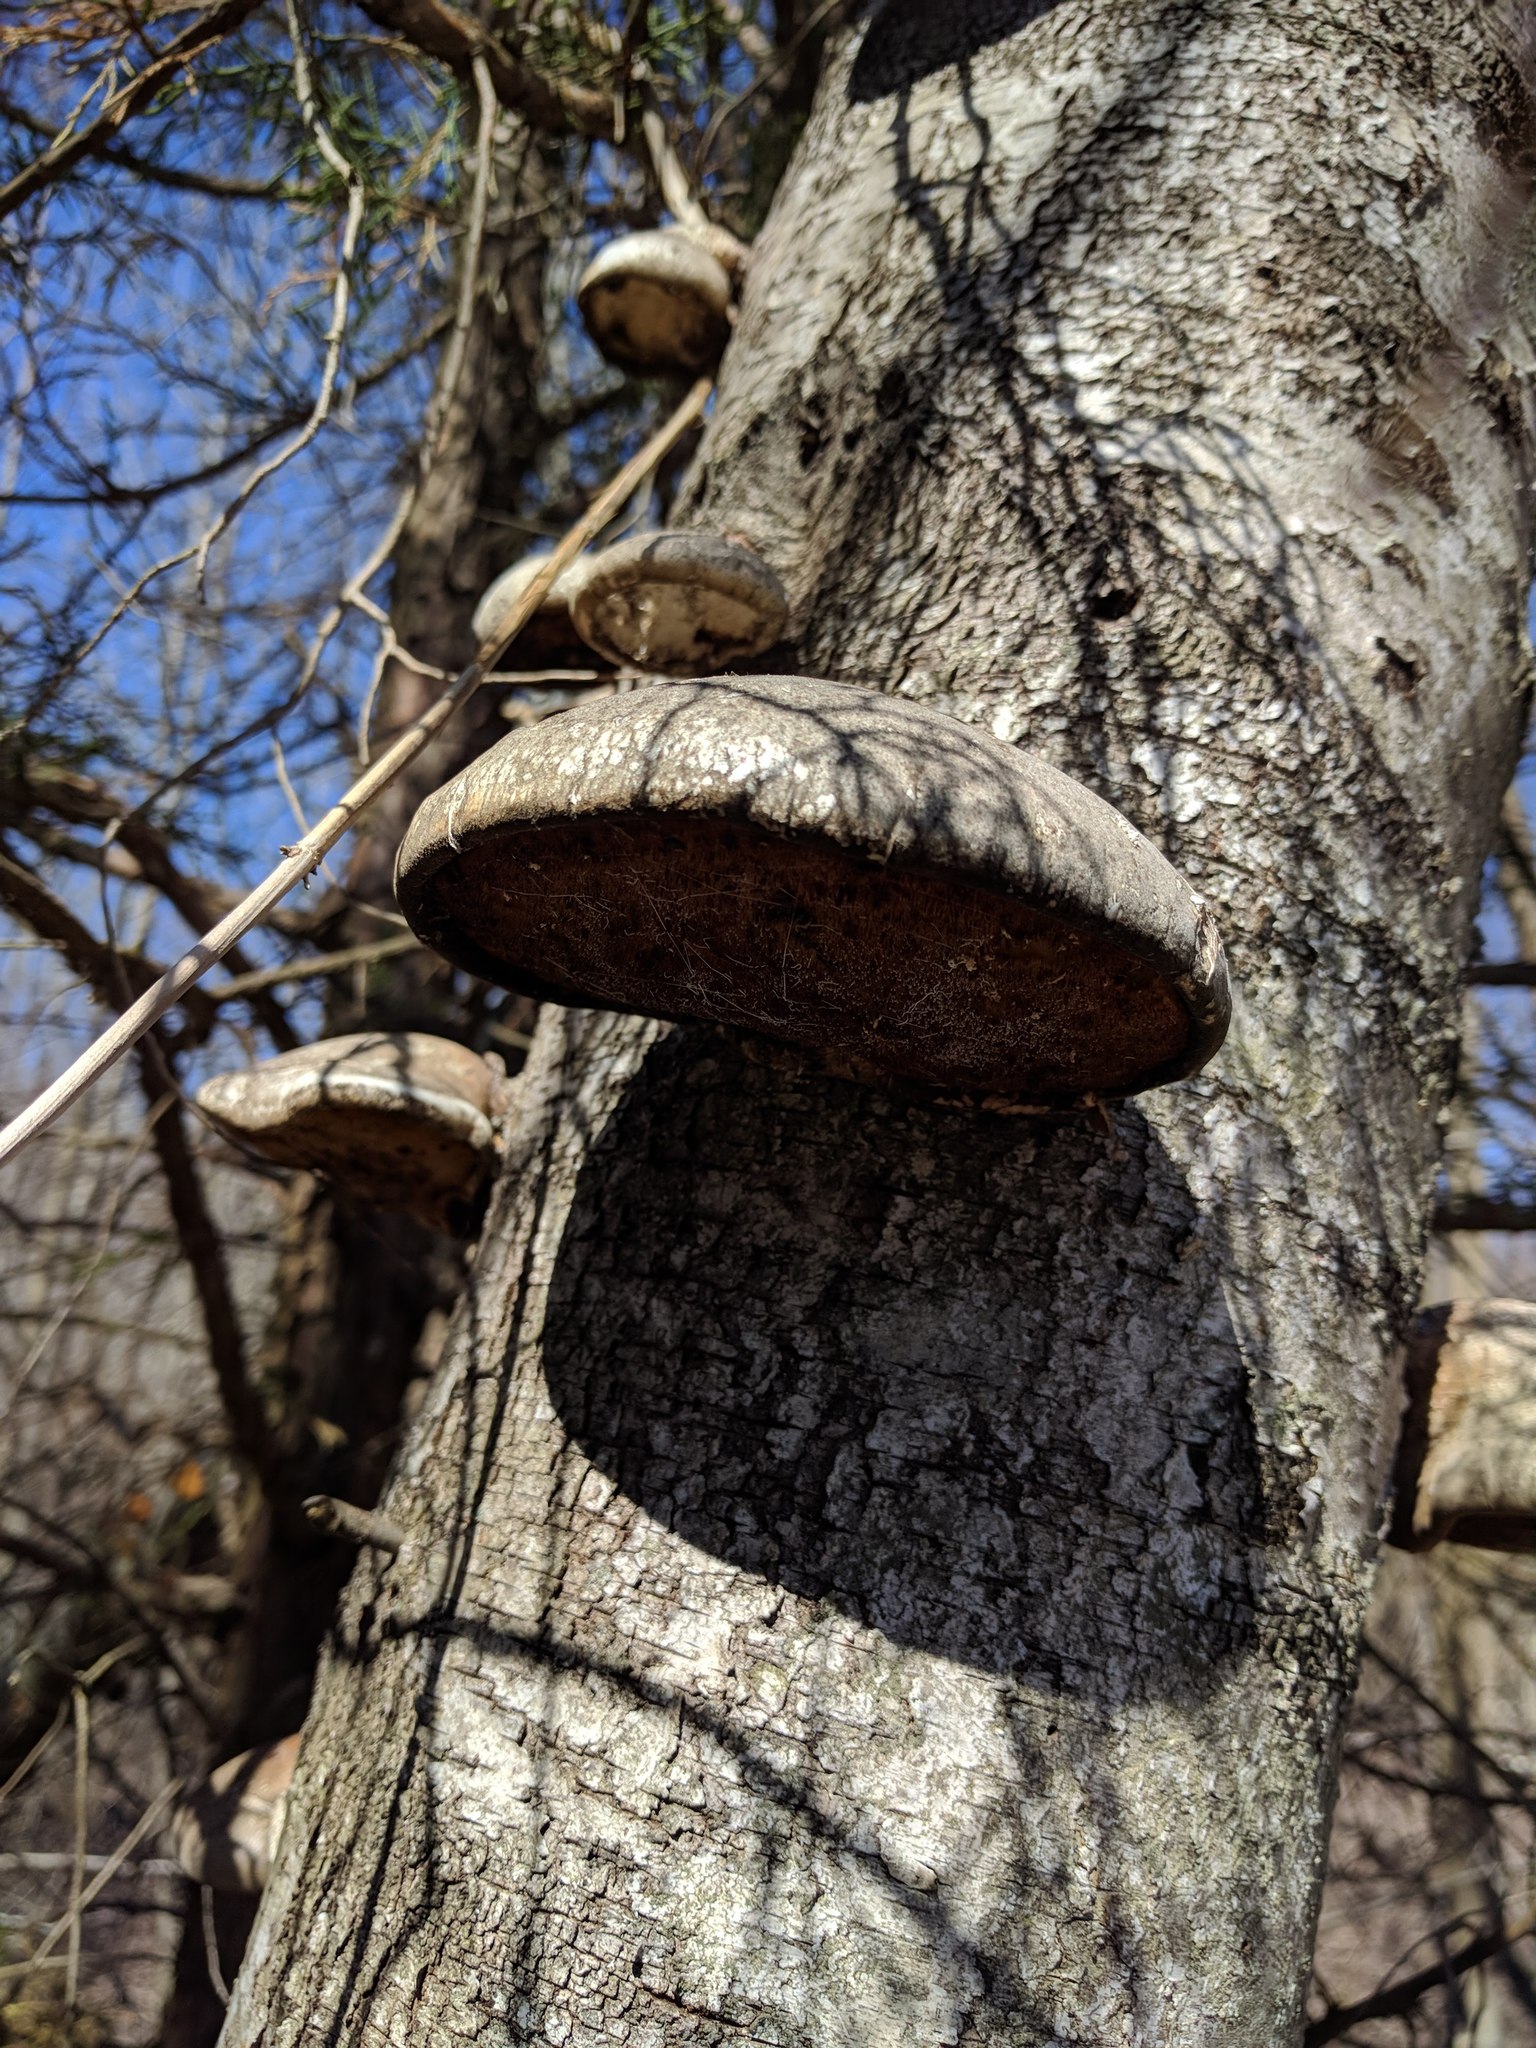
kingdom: Fungi
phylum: Basidiomycota
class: Agaricomycetes
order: Polyporales
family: Fomitopsidaceae
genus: Fomitopsis
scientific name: Fomitopsis betulina
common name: Birch polypore
